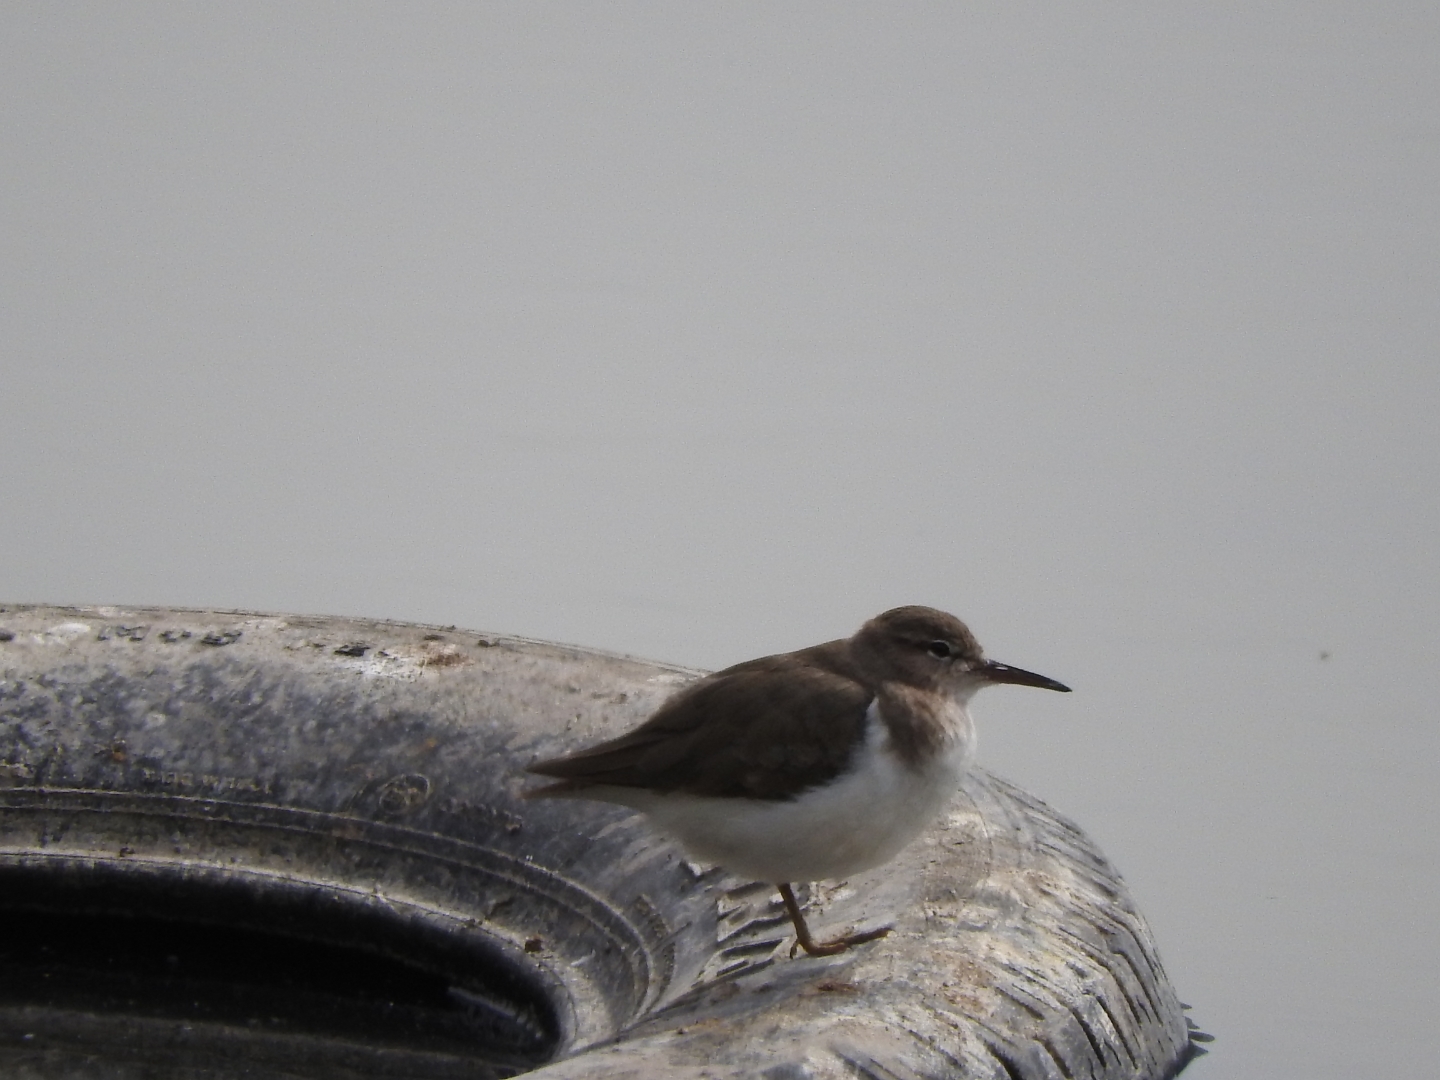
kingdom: Animalia
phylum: Chordata
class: Aves
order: Charadriiformes
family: Scolopacidae
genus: Actitis
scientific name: Actitis macularius
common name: Spotted sandpiper
